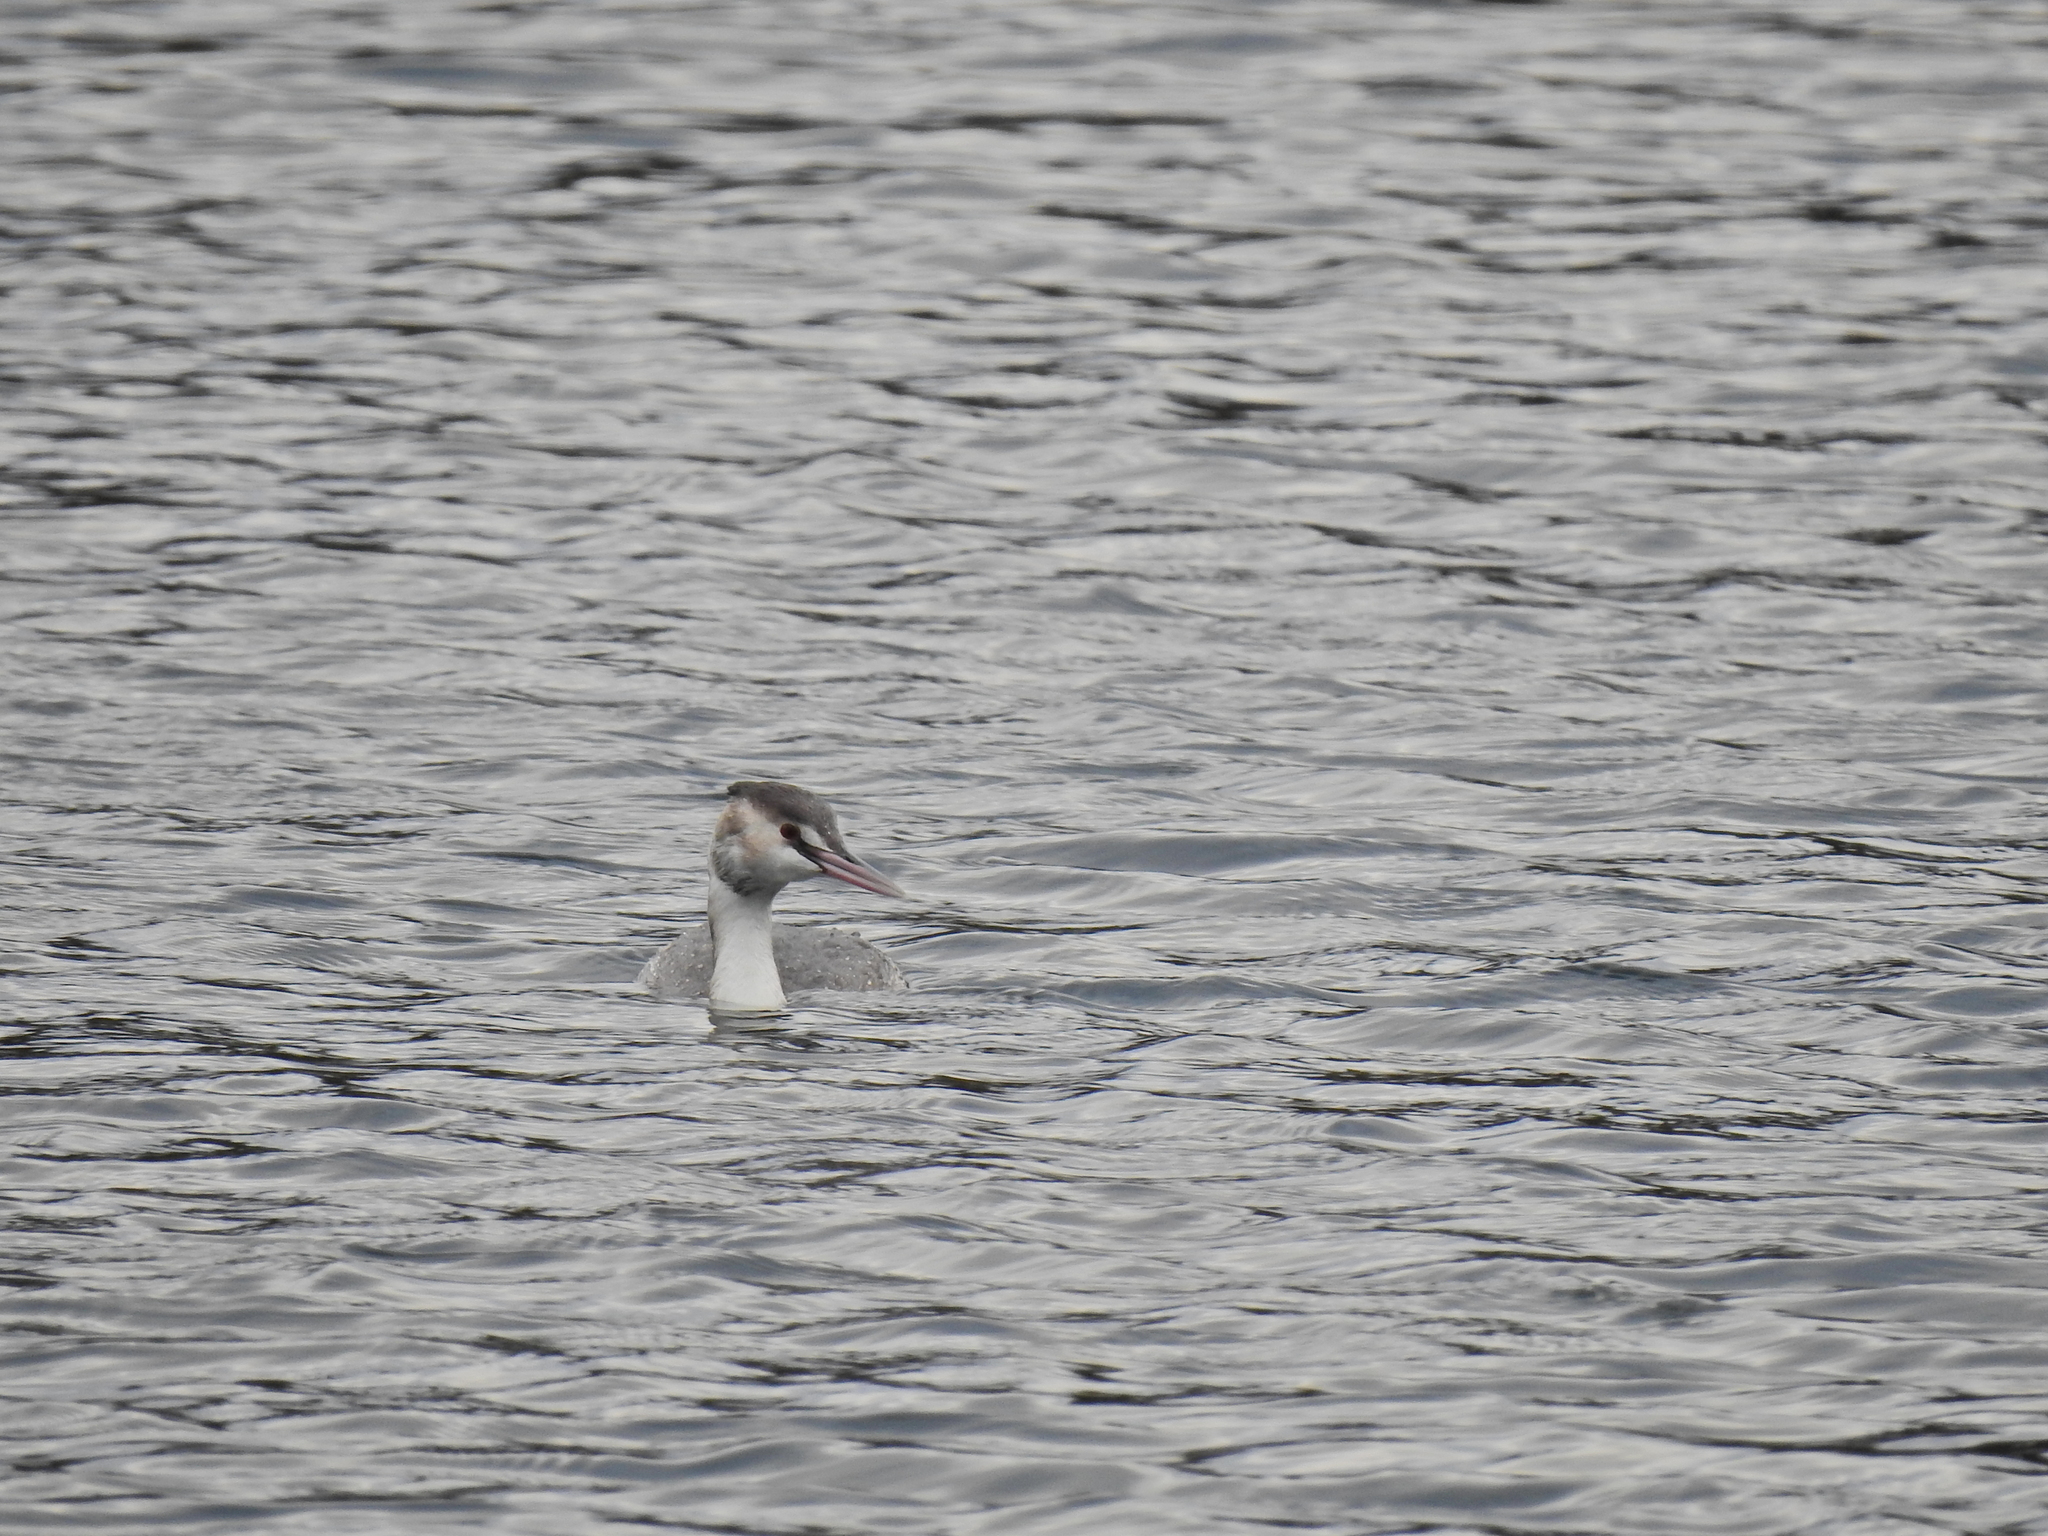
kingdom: Animalia
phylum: Chordata
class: Aves
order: Podicipediformes
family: Podicipedidae
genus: Podiceps
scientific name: Podiceps cristatus
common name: Great crested grebe
